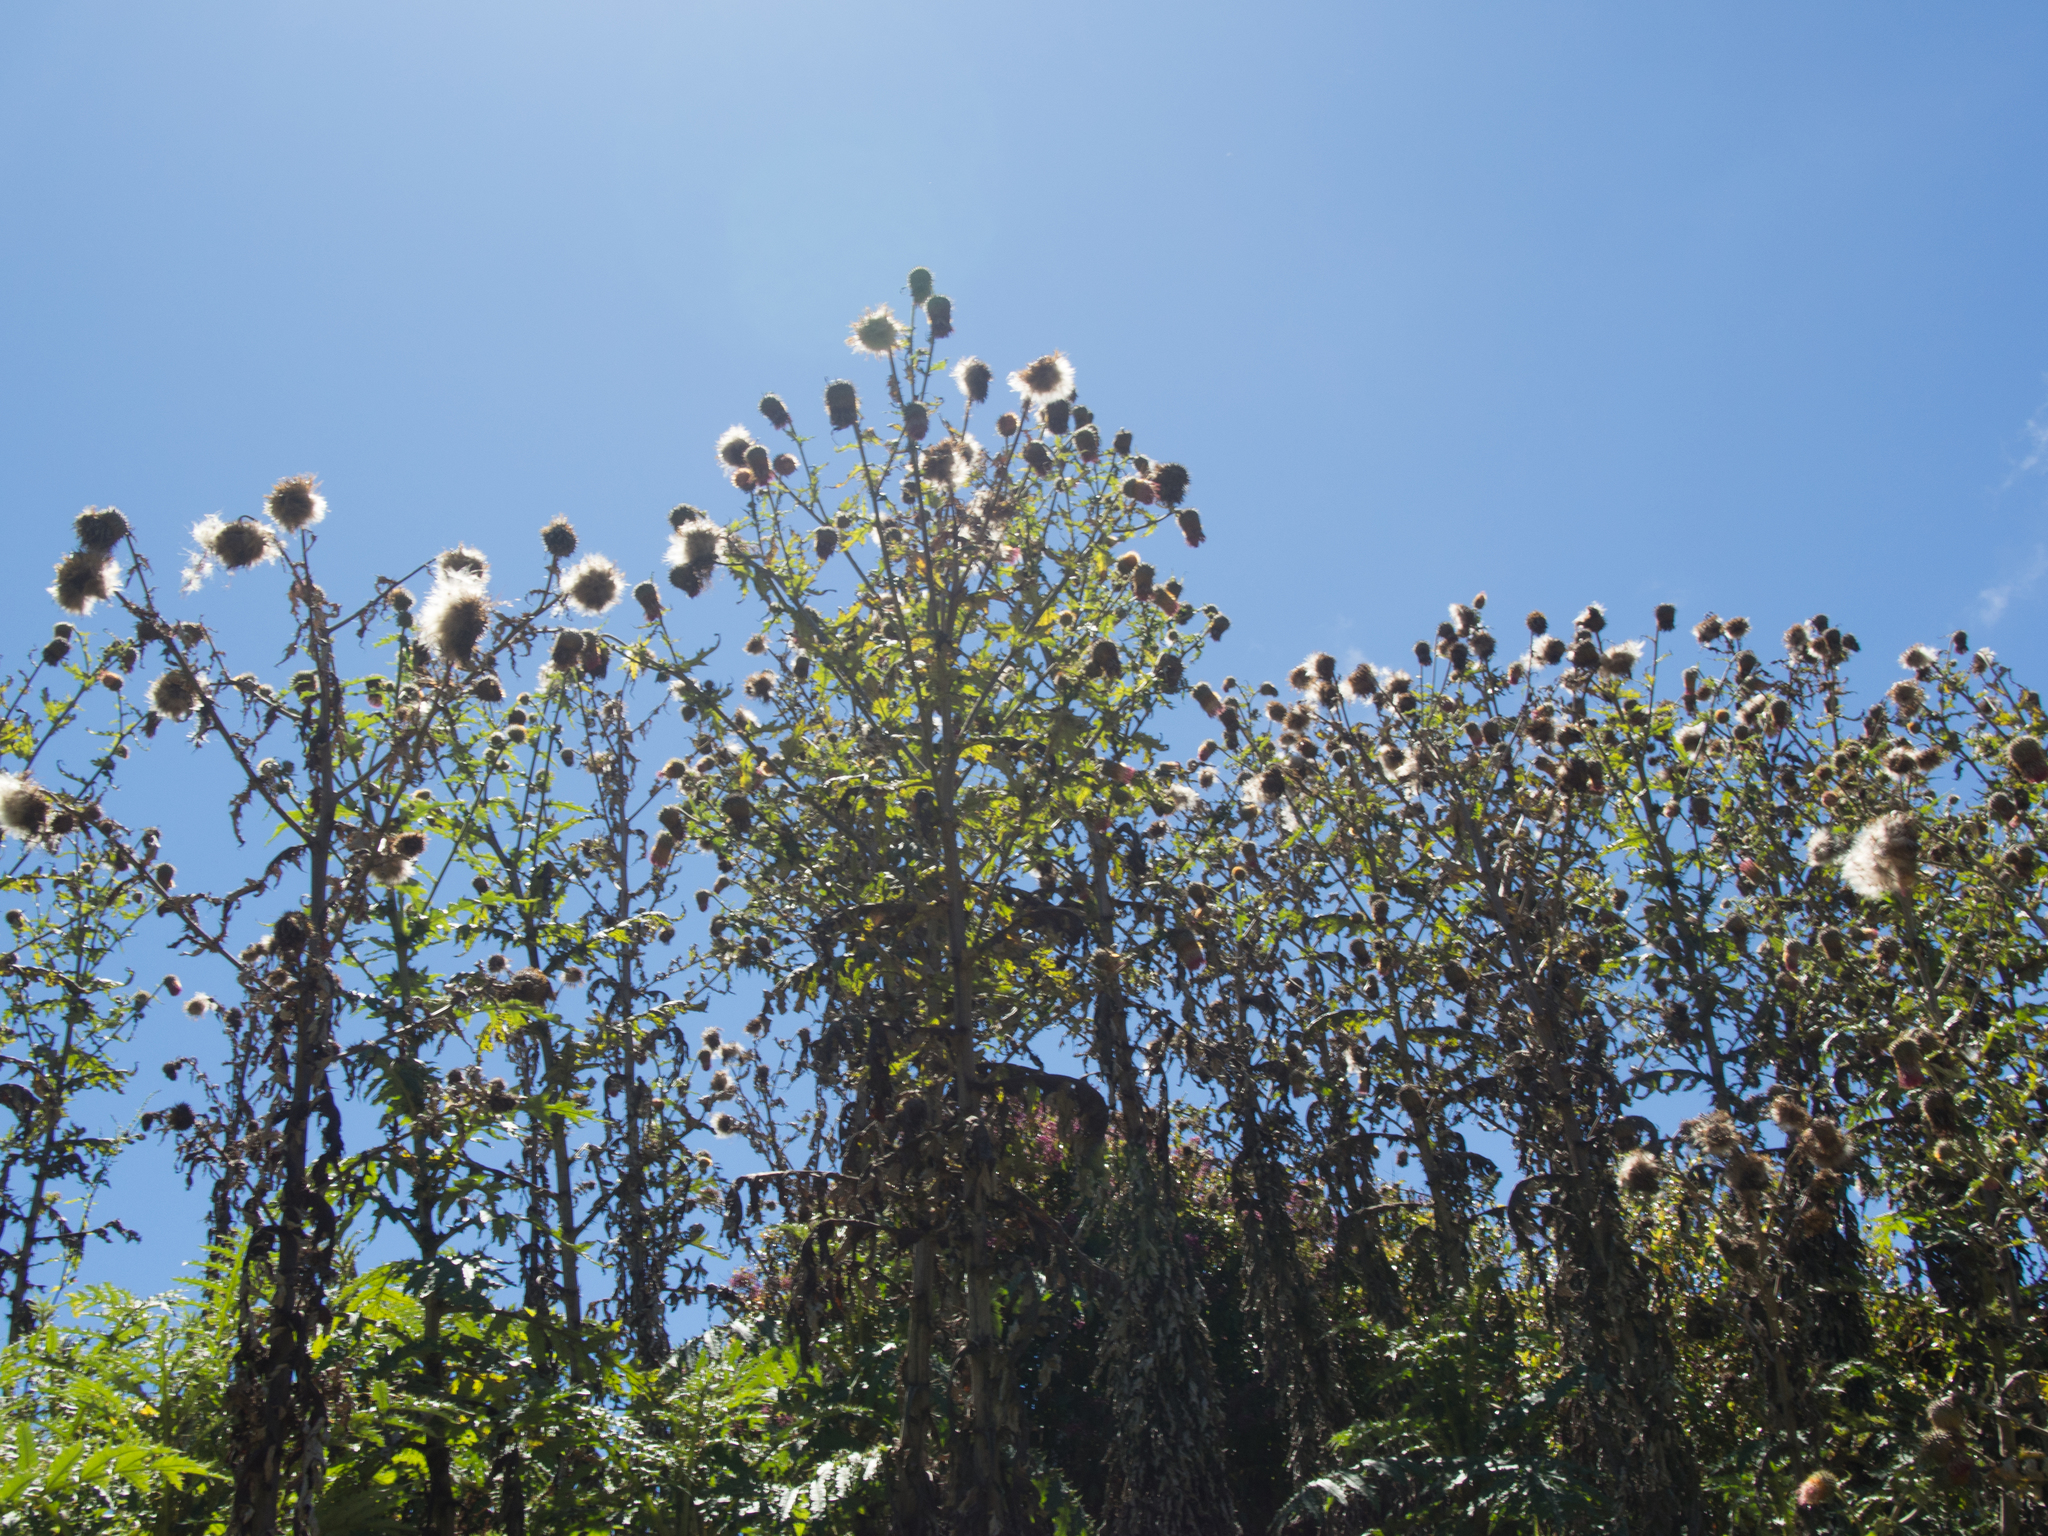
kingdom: Plantae
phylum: Tracheophyta
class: Magnoliopsida
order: Asterales
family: Asteraceae
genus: Cirsium
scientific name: Cirsium subcoriaceum
